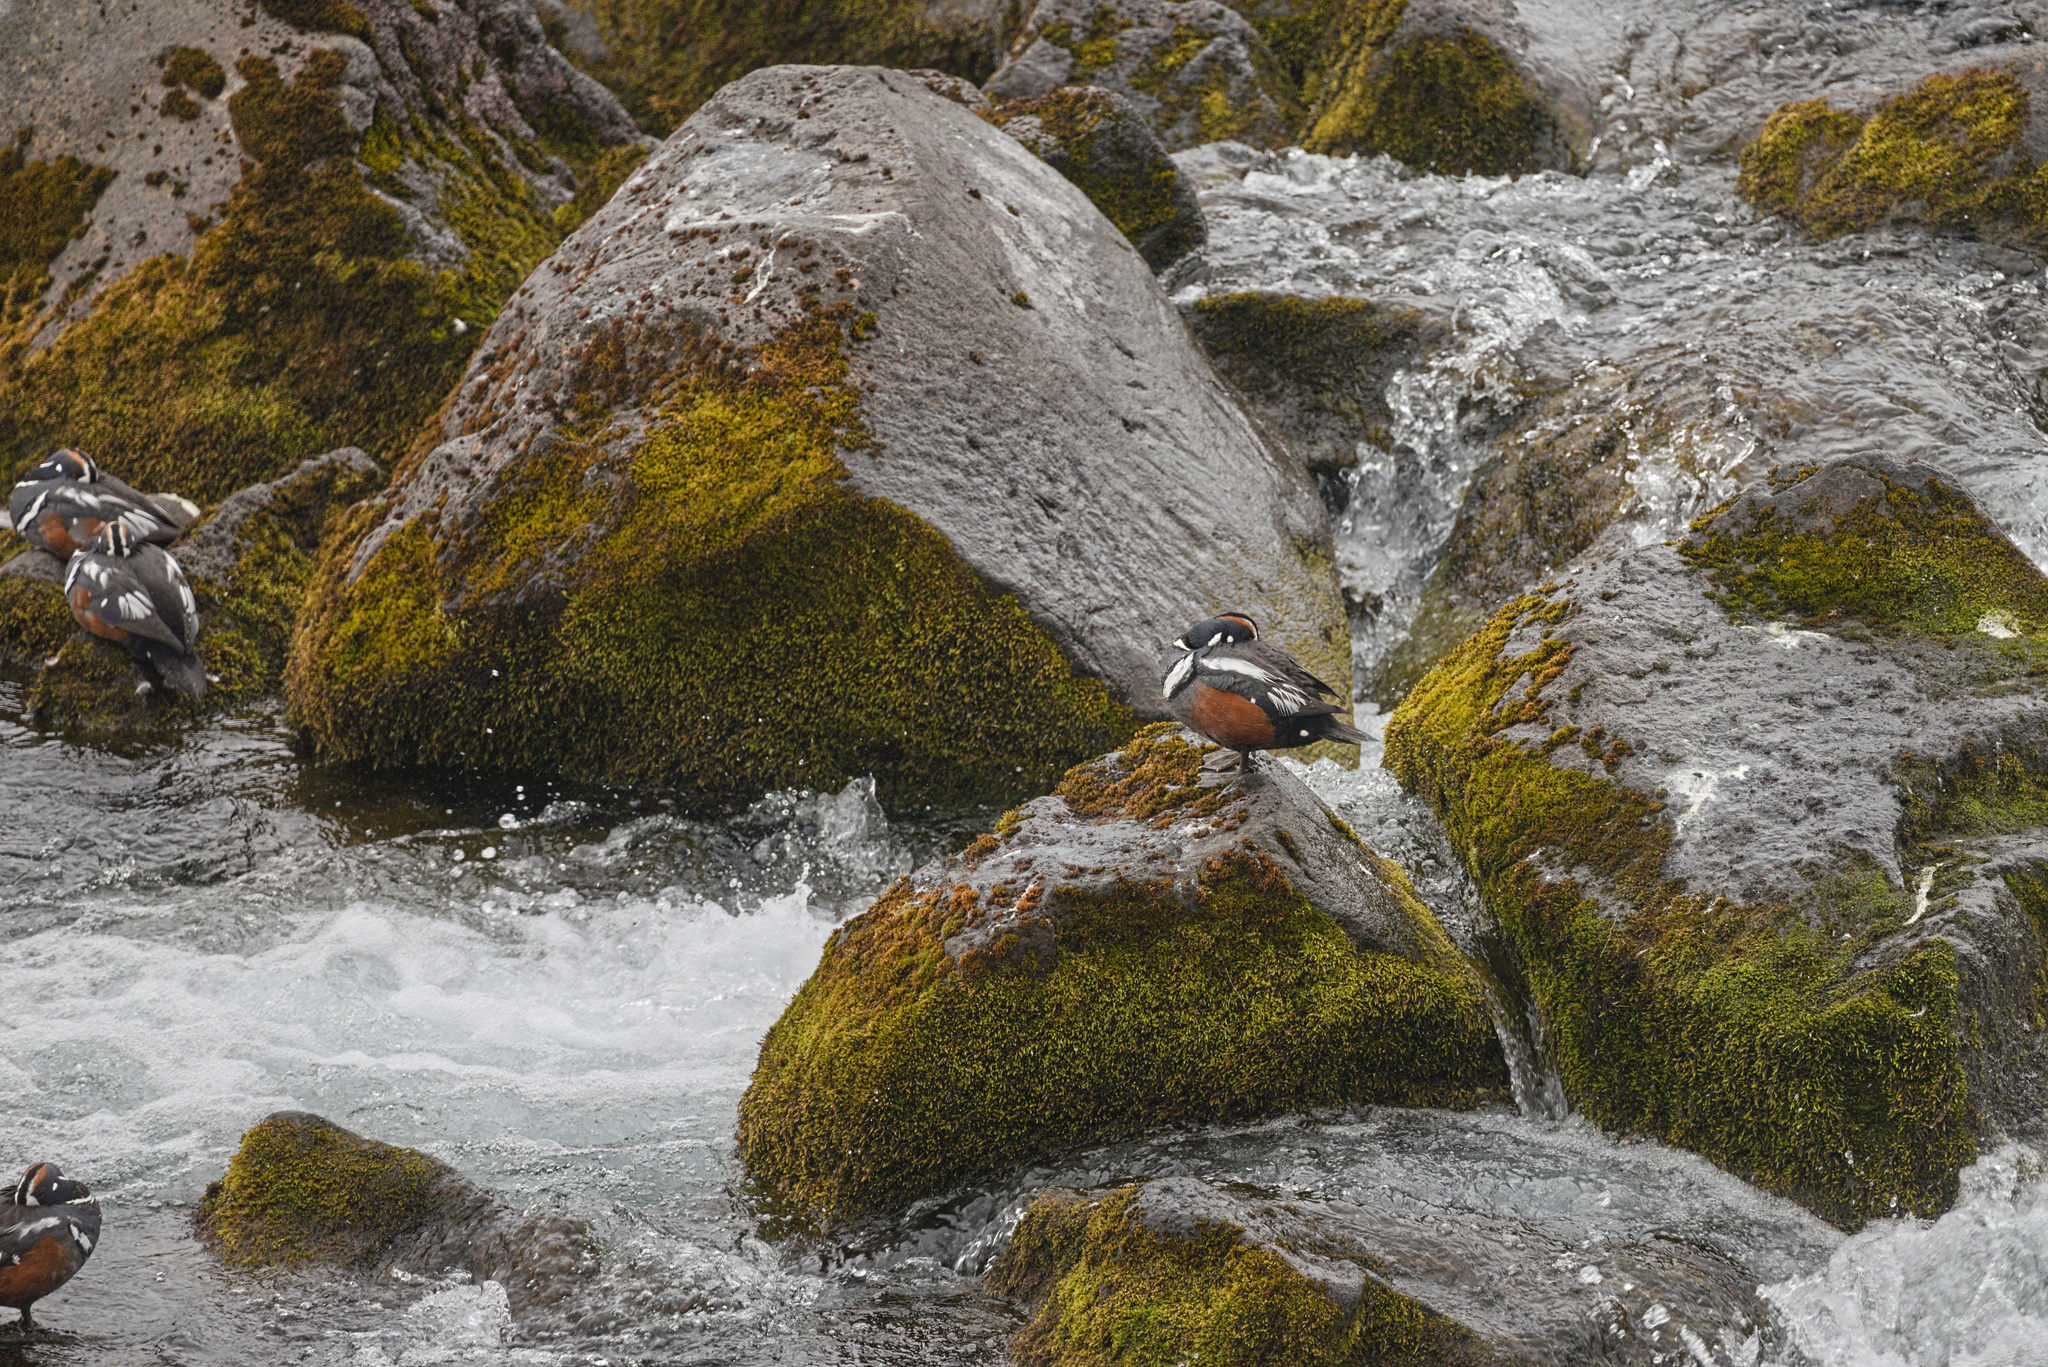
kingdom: Animalia
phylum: Chordata
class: Aves
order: Anseriformes
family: Anatidae
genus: Histrionicus
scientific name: Histrionicus histrionicus
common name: Harlequin duck
